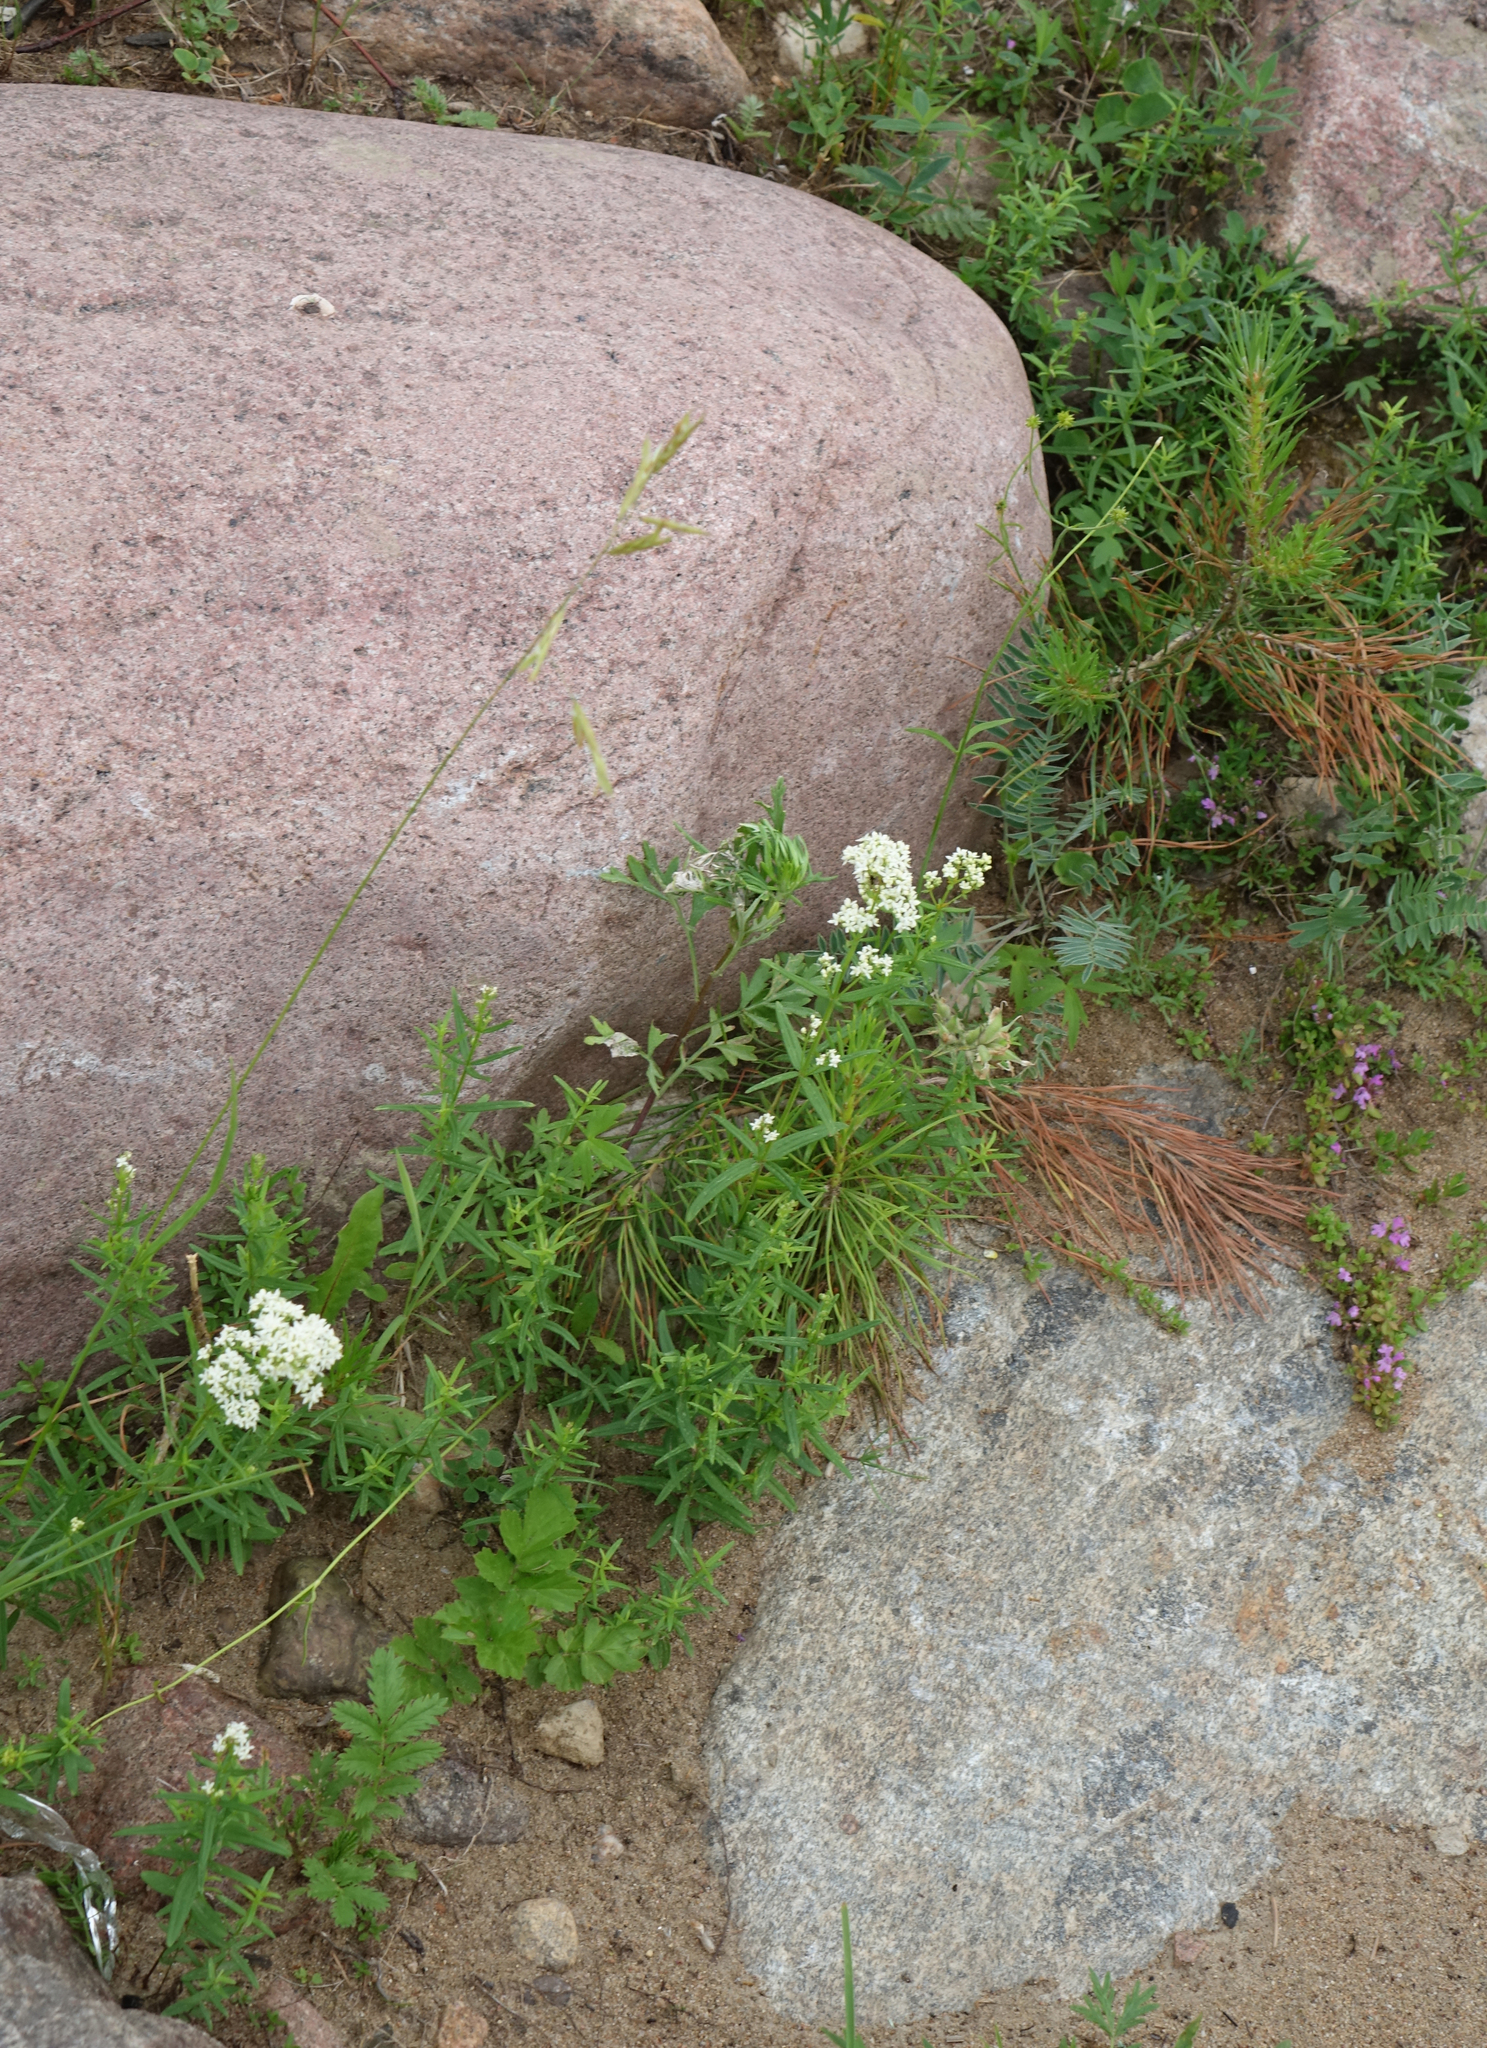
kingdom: Plantae
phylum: Tracheophyta
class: Magnoliopsida
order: Gentianales
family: Rubiaceae
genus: Galium
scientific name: Galium boreale
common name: Northern bedstraw
